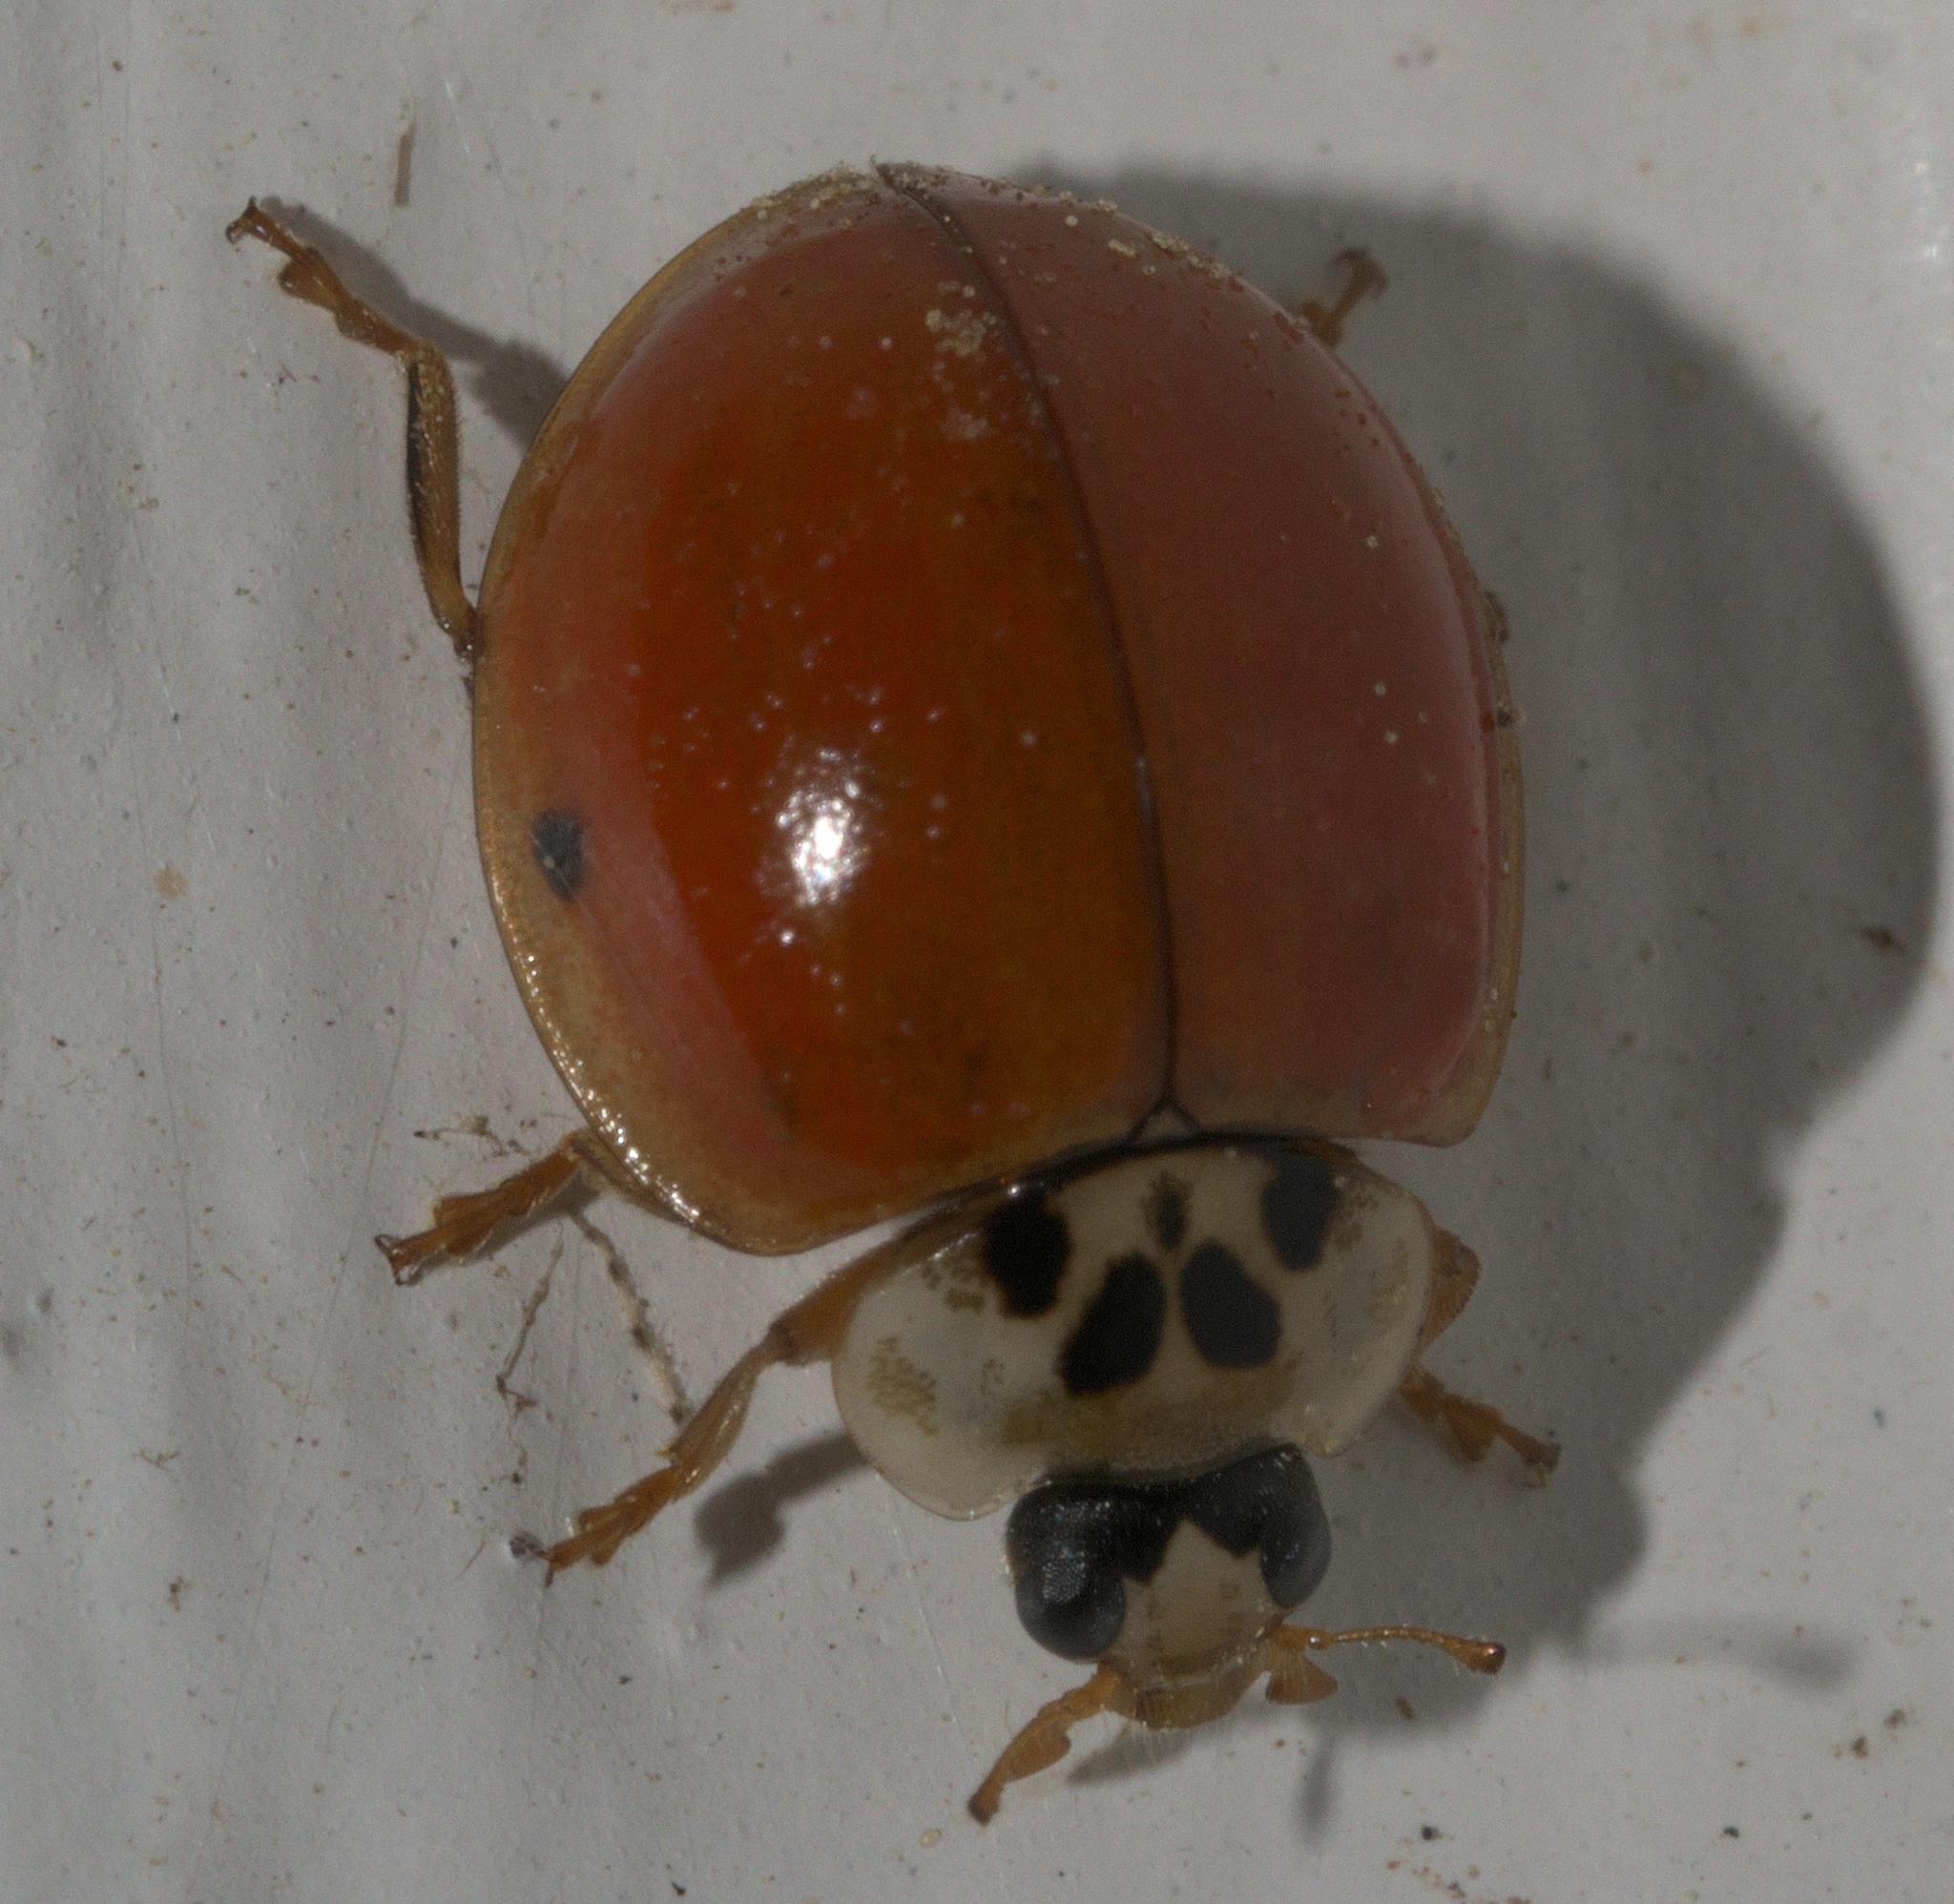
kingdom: Animalia
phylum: Arthropoda
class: Insecta
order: Coleoptera
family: Coccinellidae
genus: Harmonia
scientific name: Harmonia axyridis
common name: Harlequin ladybird
